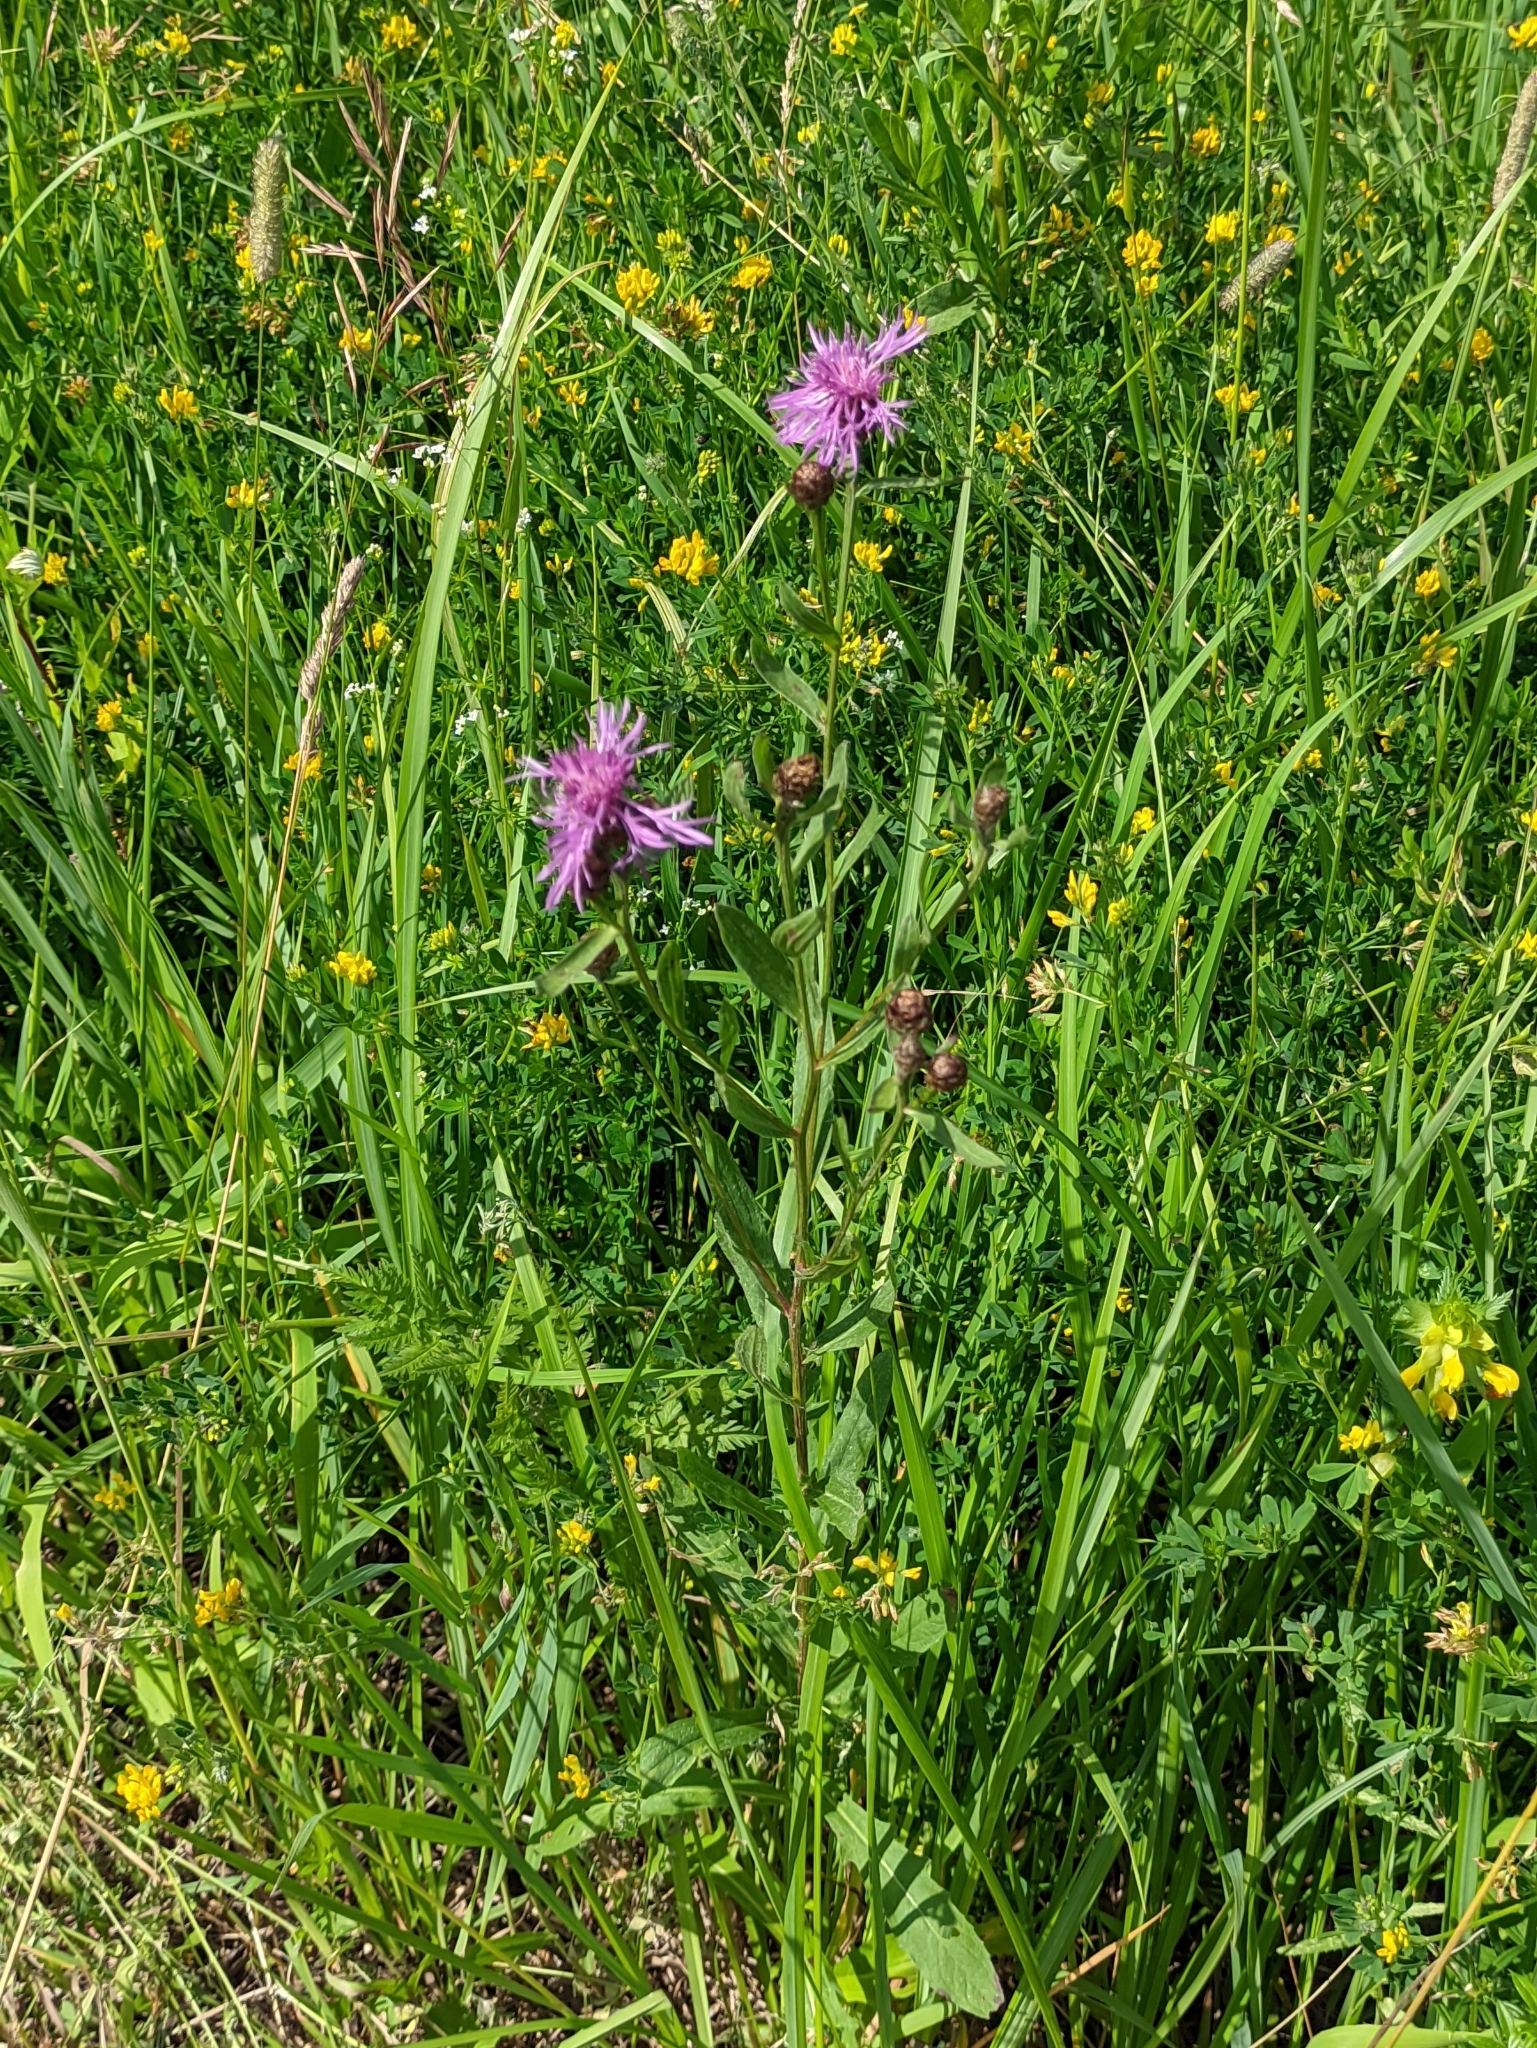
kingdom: Plantae
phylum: Tracheophyta
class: Magnoliopsida
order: Asterales
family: Asteraceae
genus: Centaurea
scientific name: Centaurea jacea
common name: Brown knapweed
